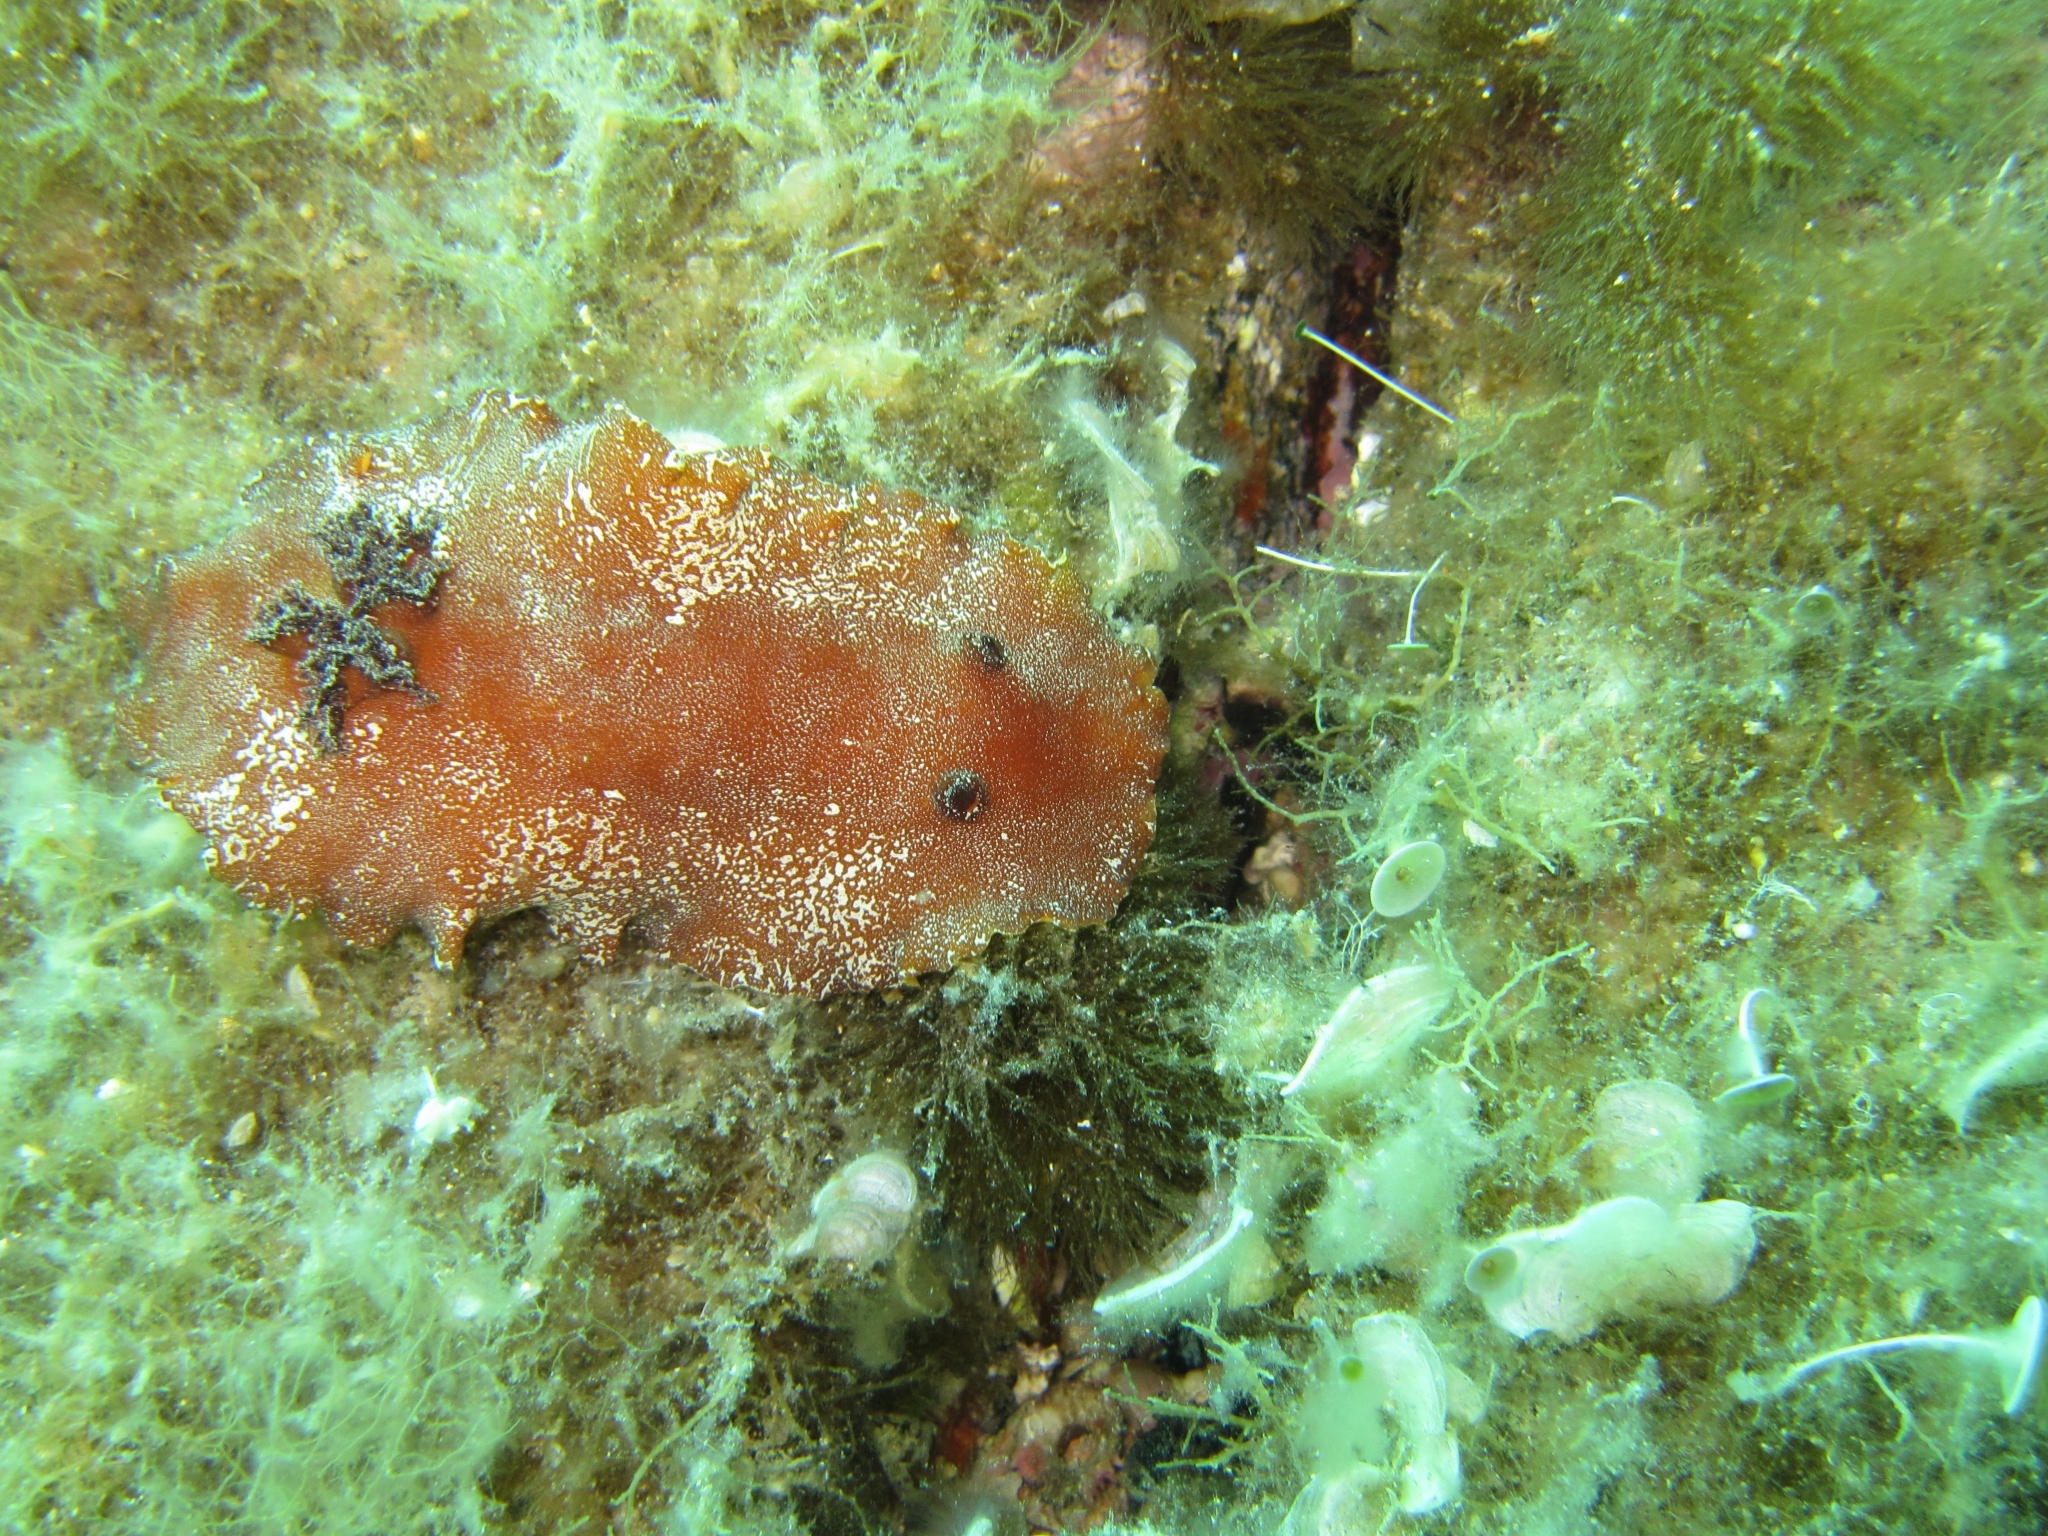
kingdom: Animalia
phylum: Mollusca
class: Gastropoda
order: Nudibranchia
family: Discodorididae
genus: Platydoris
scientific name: Platydoris argo
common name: Redbrown leathery doris
